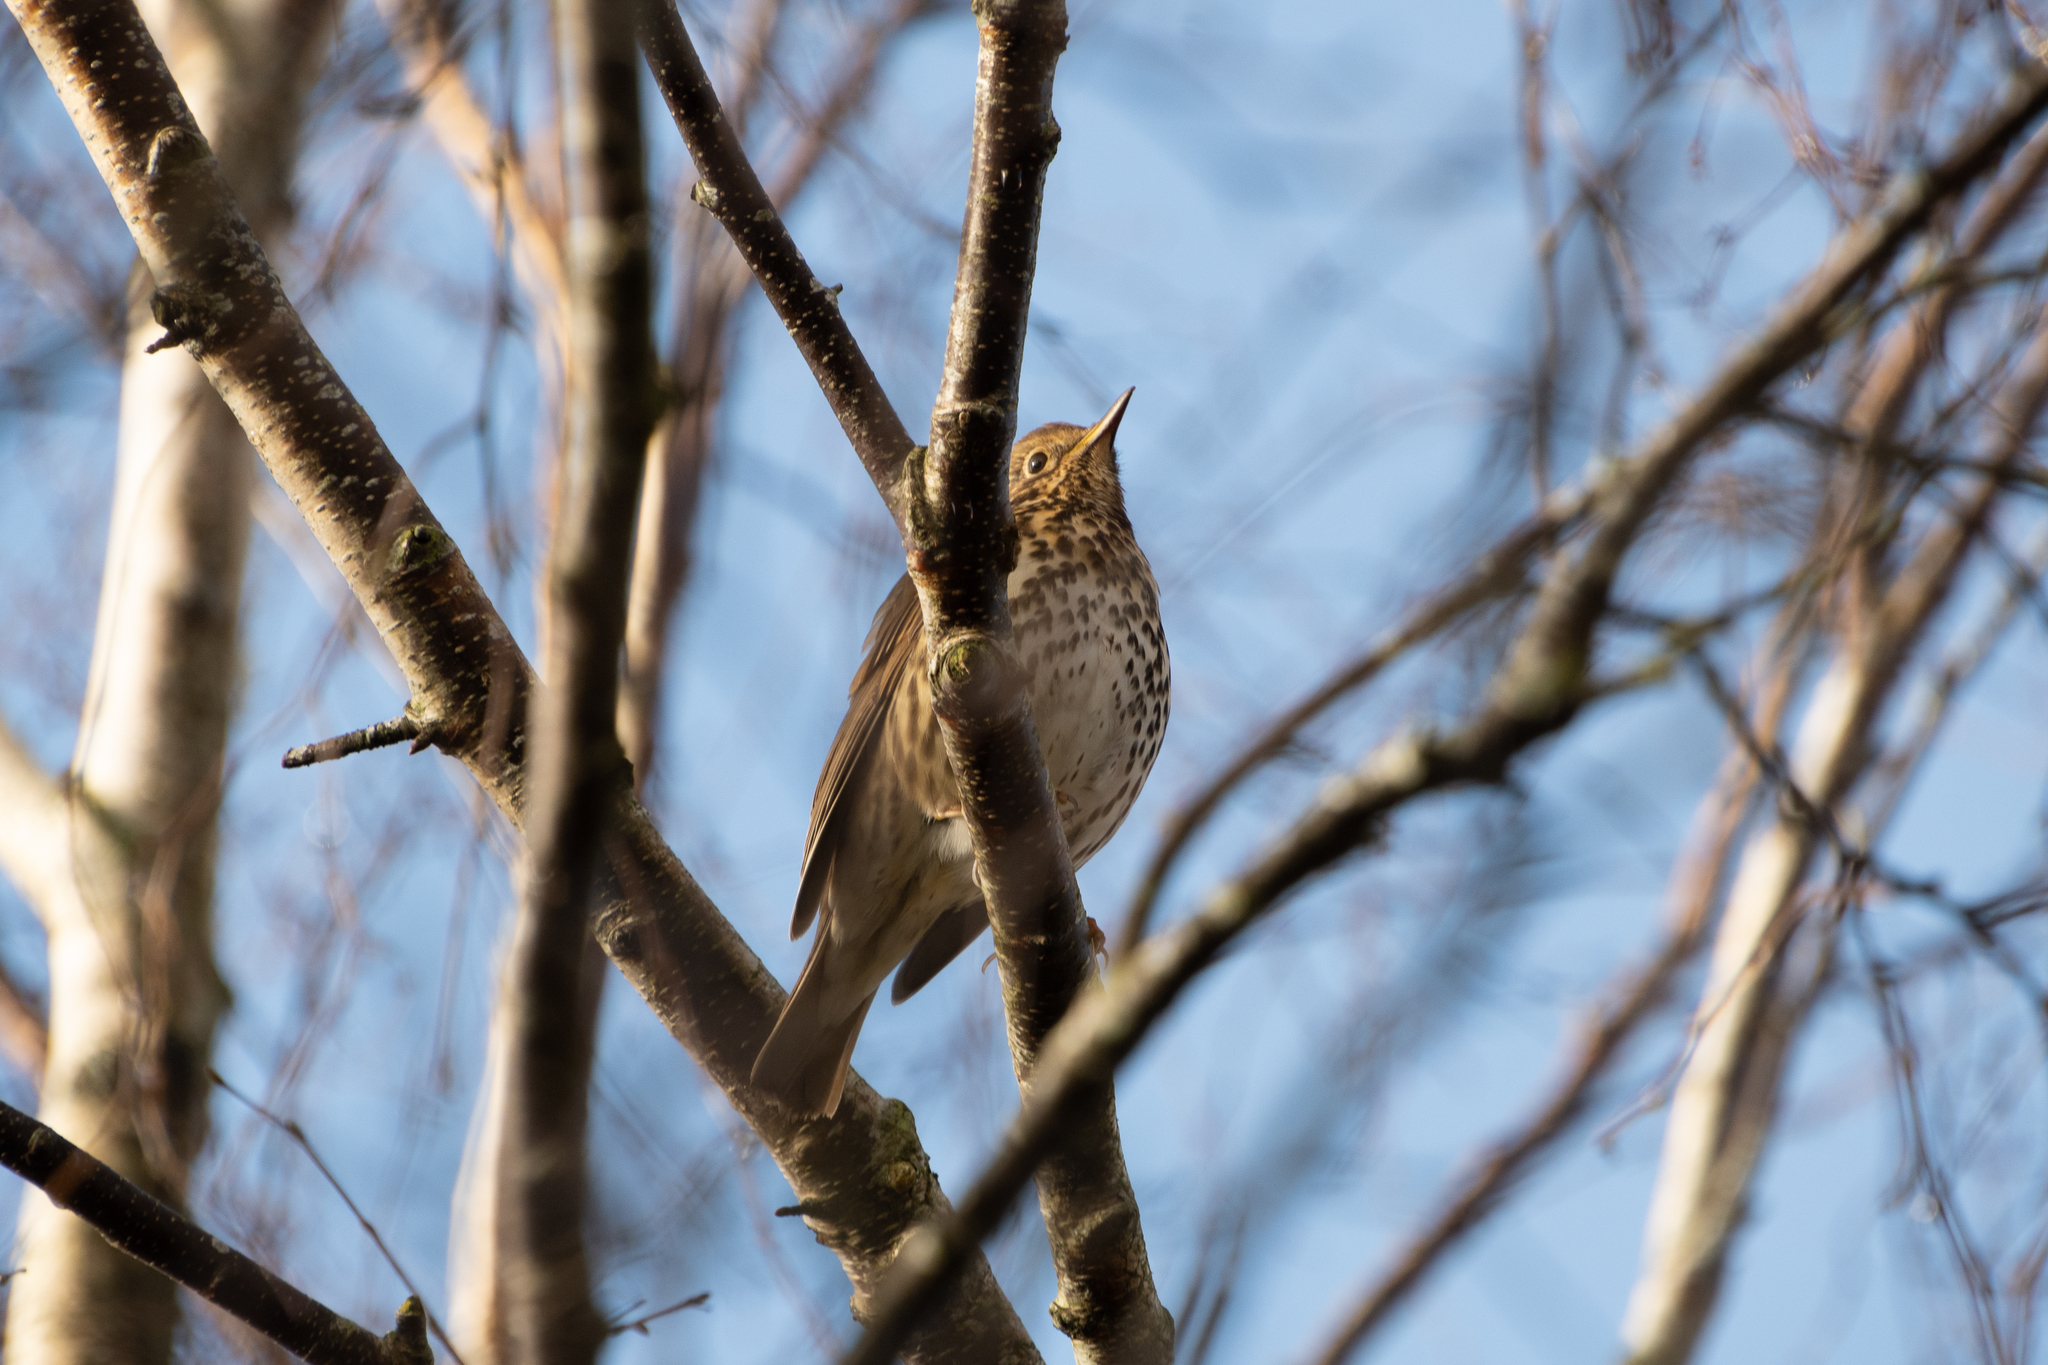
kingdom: Animalia
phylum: Chordata
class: Aves
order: Passeriformes
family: Turdidae
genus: Turdus
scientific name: Turdus philomelos
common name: Song thrush
